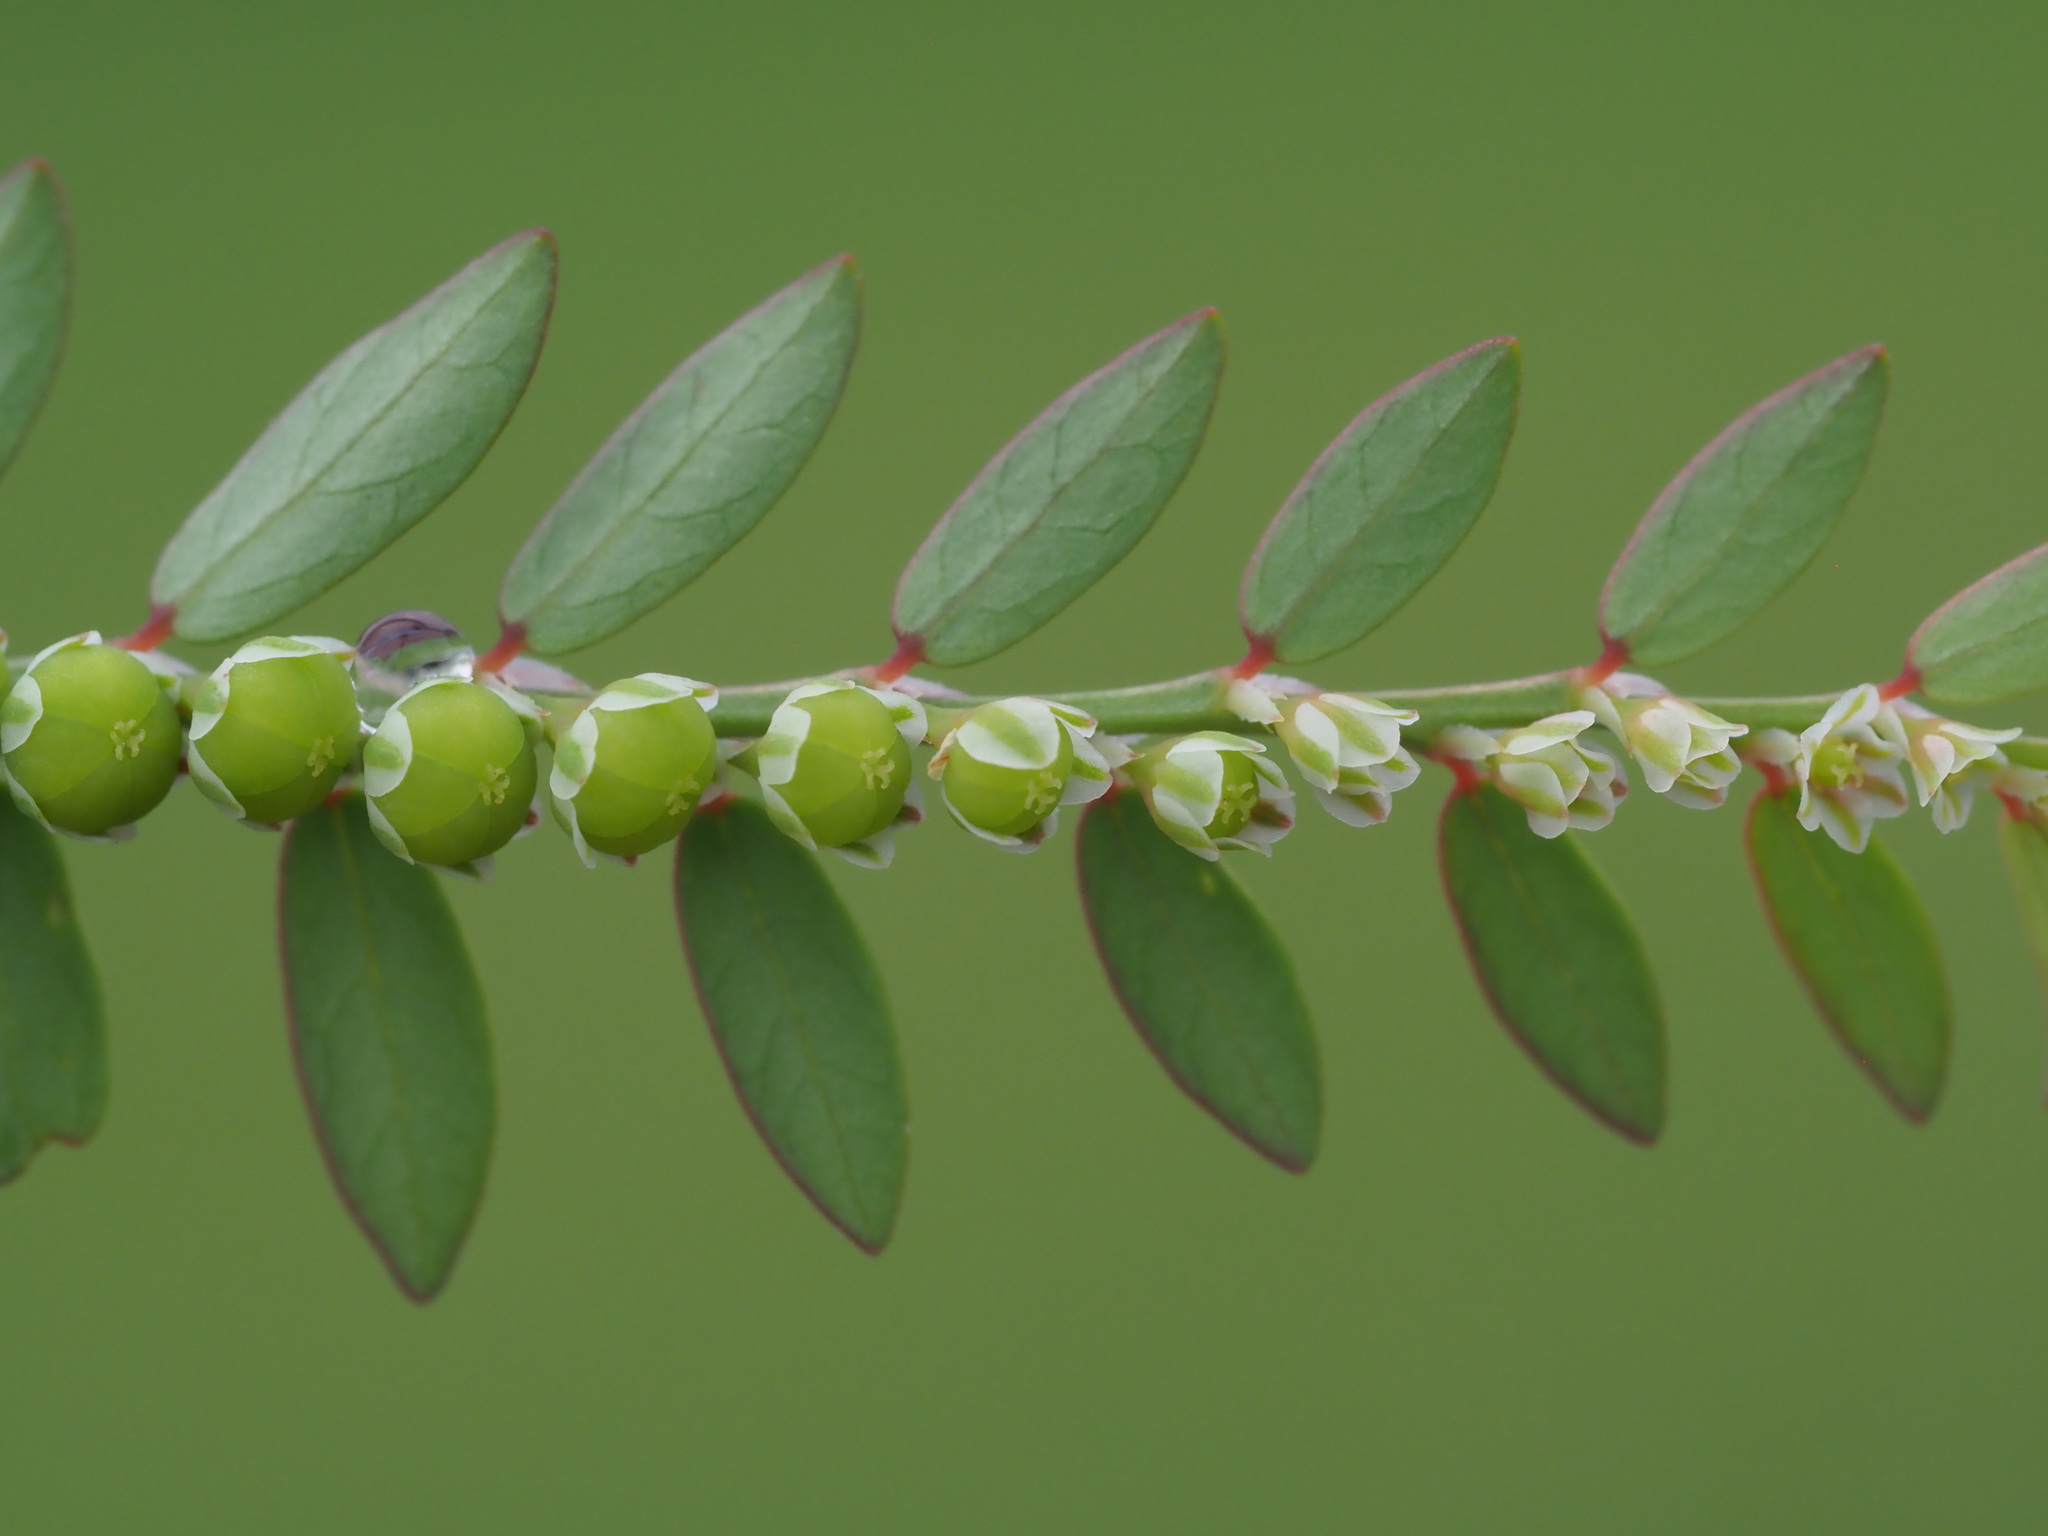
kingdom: Plantae
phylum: Tracheophyta
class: Magnoliopsida
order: Malpighiales
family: Phyllanthaceae
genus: Phyllanthus
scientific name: Phyllanthus debilis
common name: Niruri
